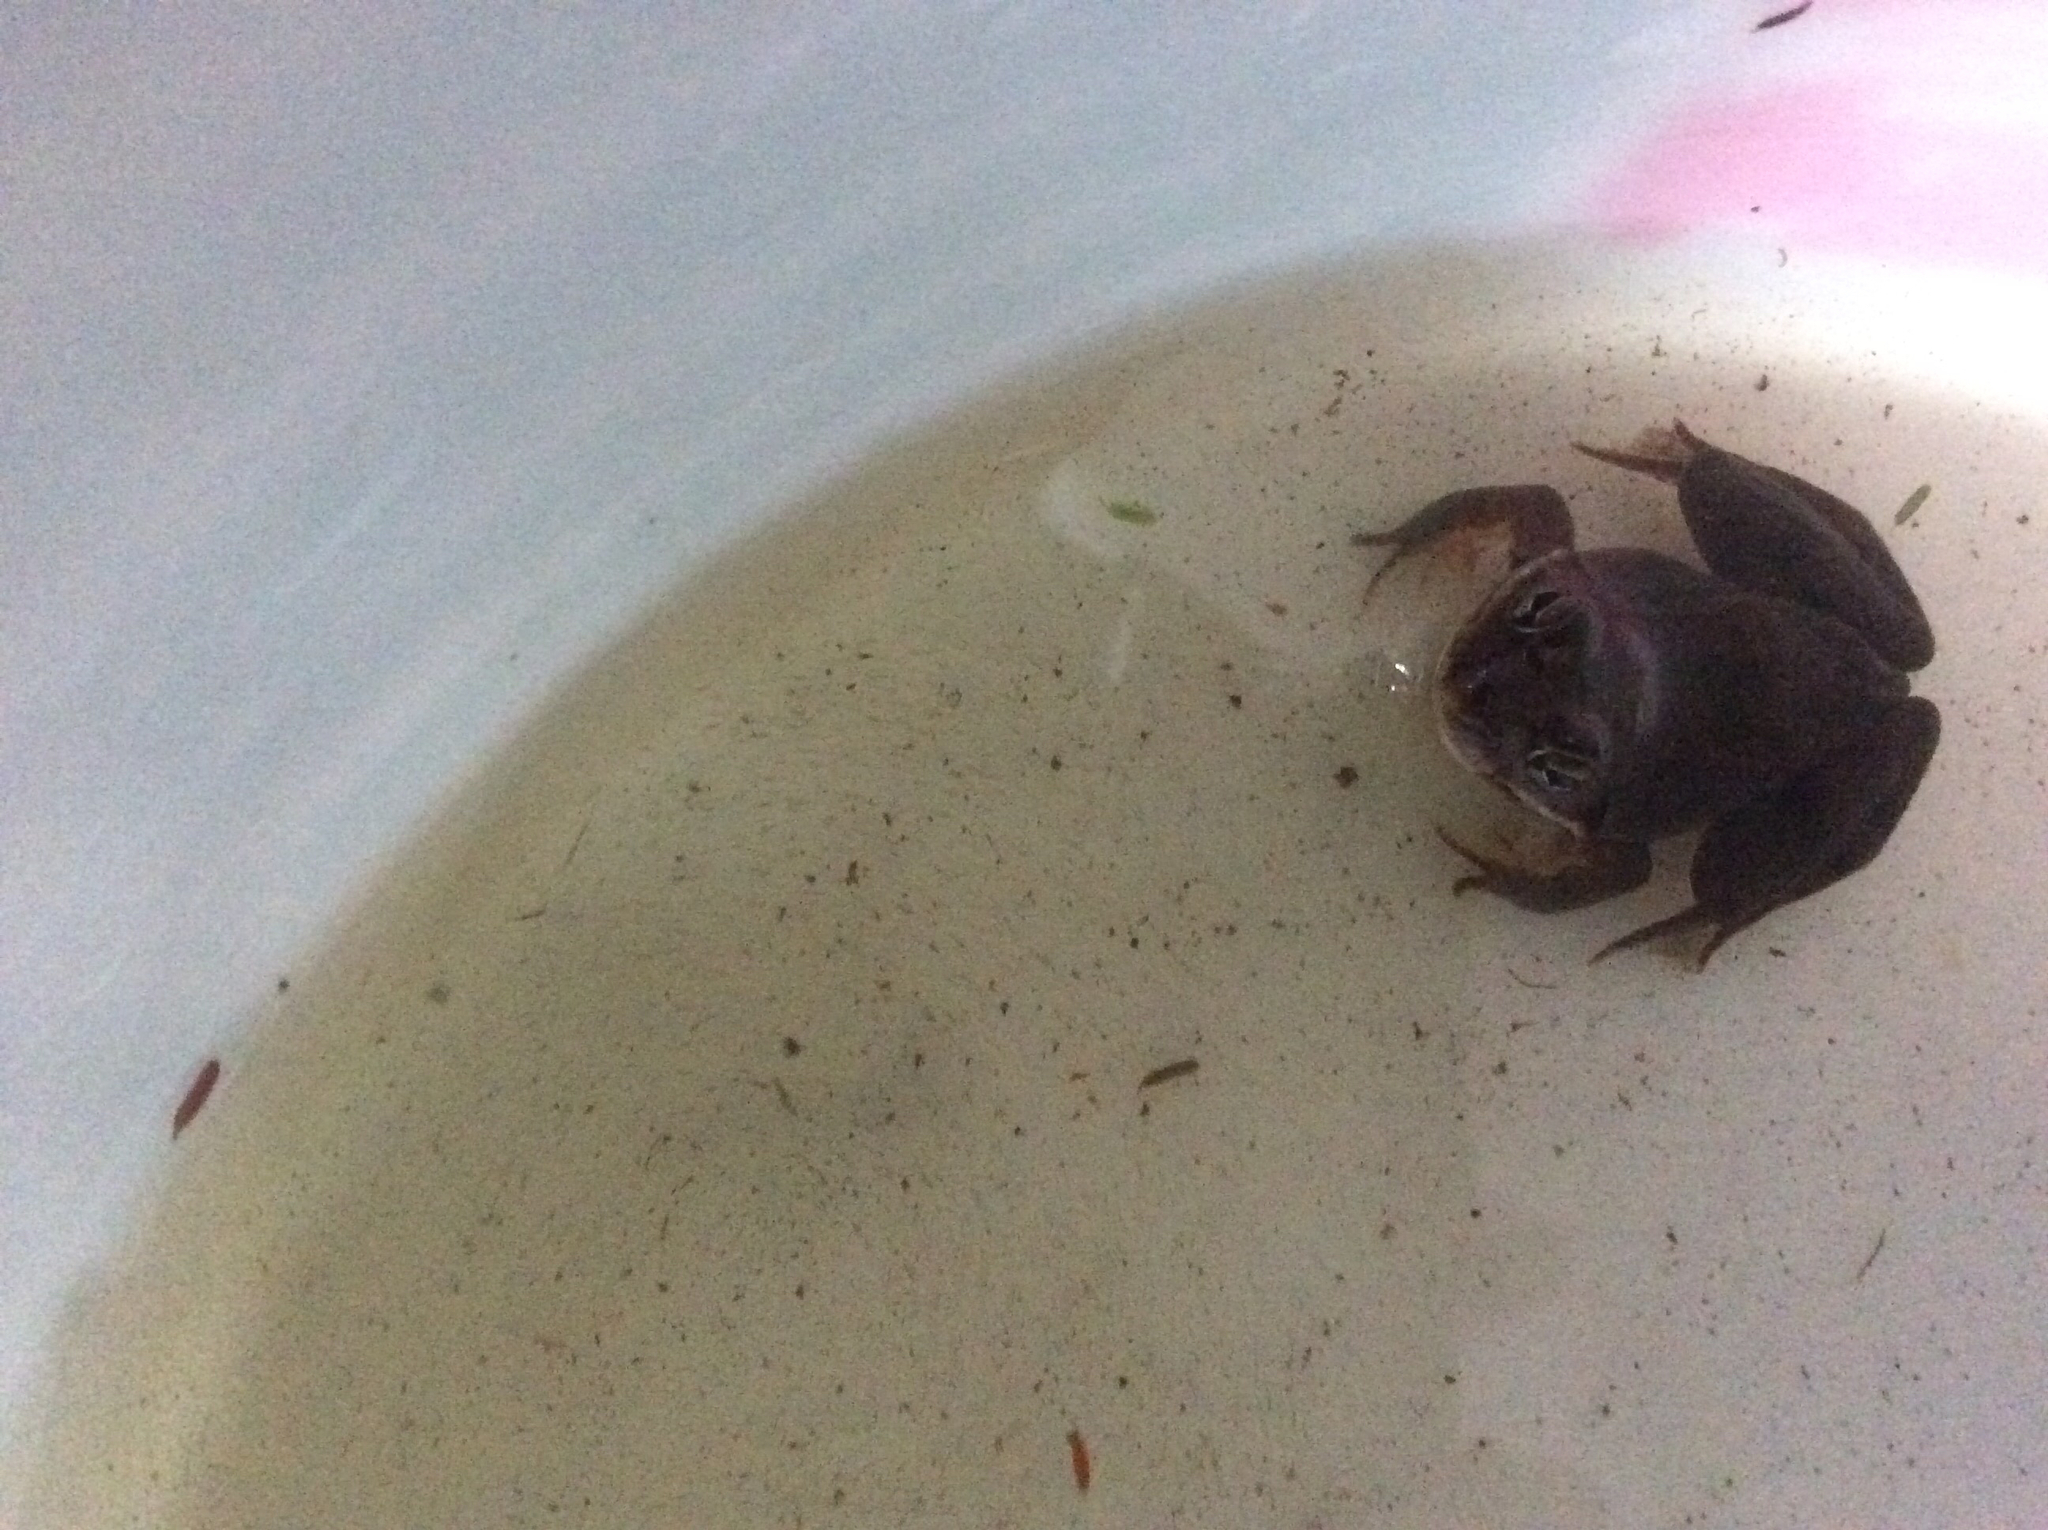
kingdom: Animalia
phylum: Chordata
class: Amphibia
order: Anura
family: Ranidae
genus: Lithobates
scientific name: Lithobates sylvaticus
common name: Wood frog
